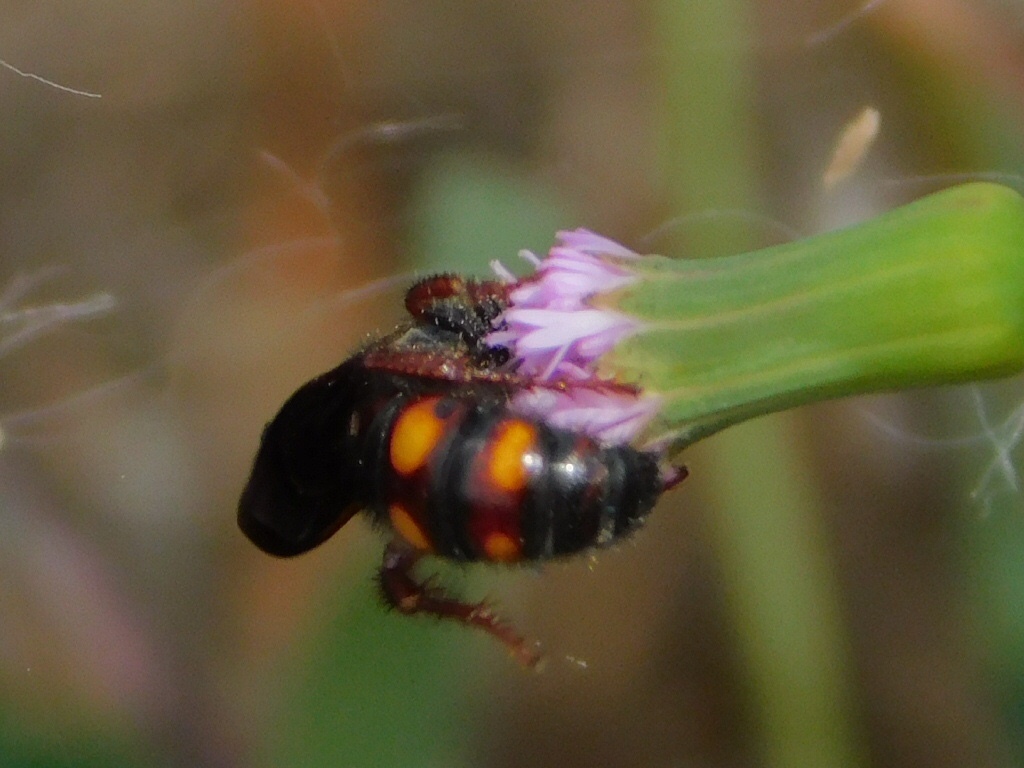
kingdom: Animalia
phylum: Arthropoda
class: Insecta
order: Hymenoptera
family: Scoliidae
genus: Scolia
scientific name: Scolia nobilitata
